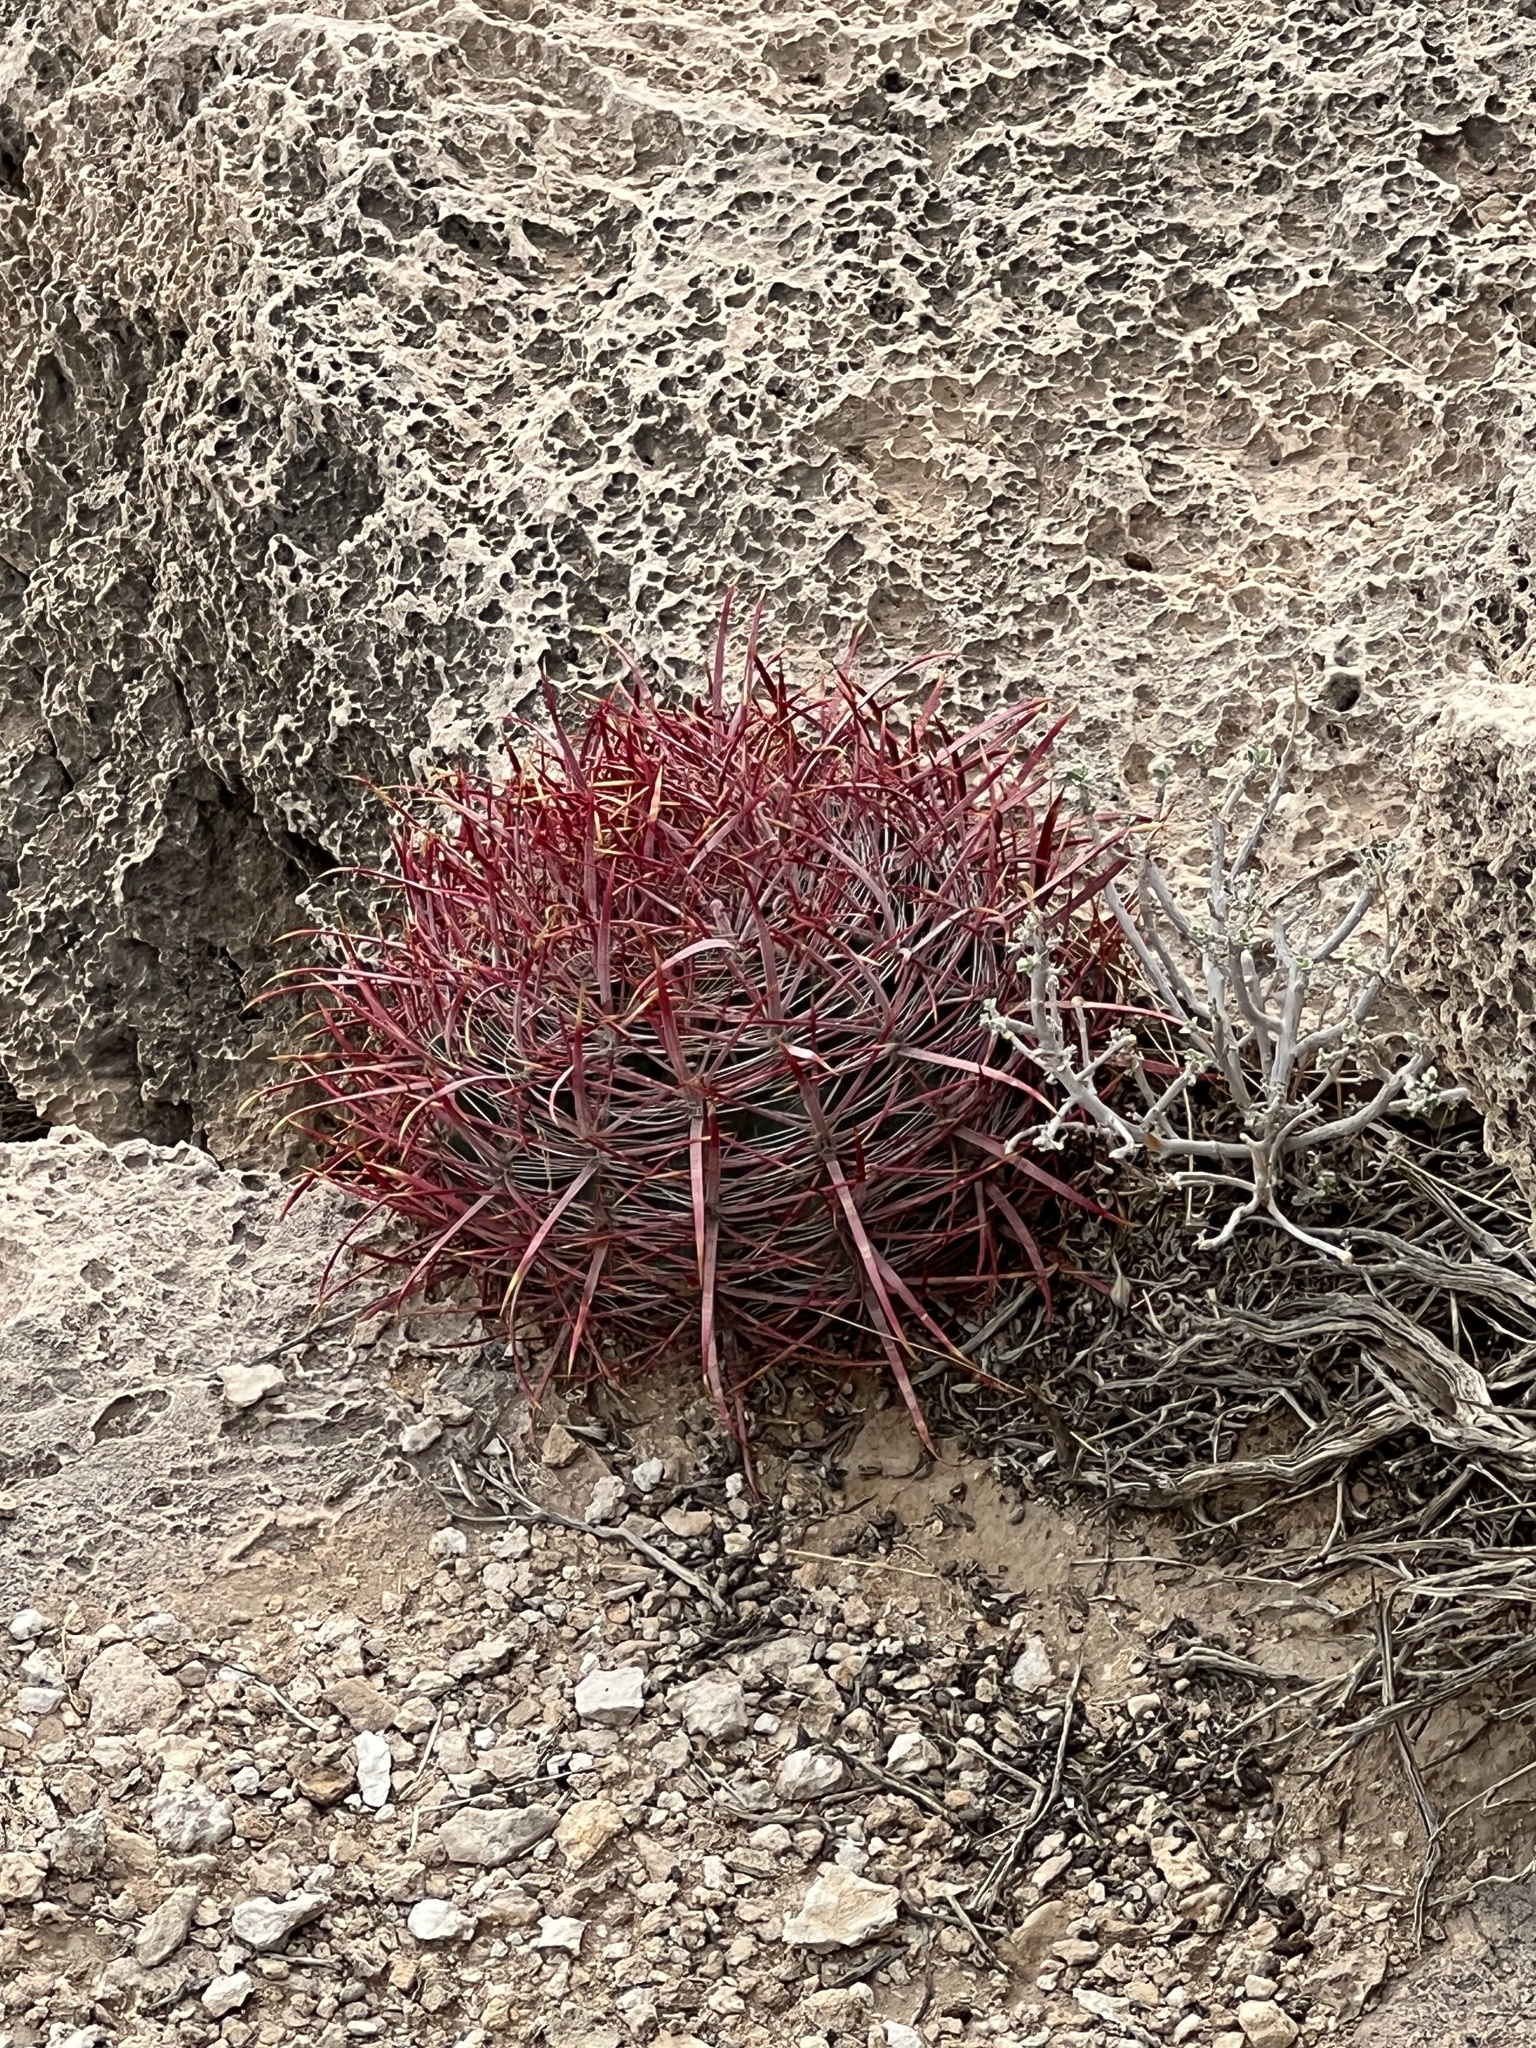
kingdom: Plantae
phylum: Tracheophyta
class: Magnoliopsida
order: Caryophyllales
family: Cactaceae
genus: Ferocactus
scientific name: Ferocactus cylindraceus
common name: California barrel cactus
